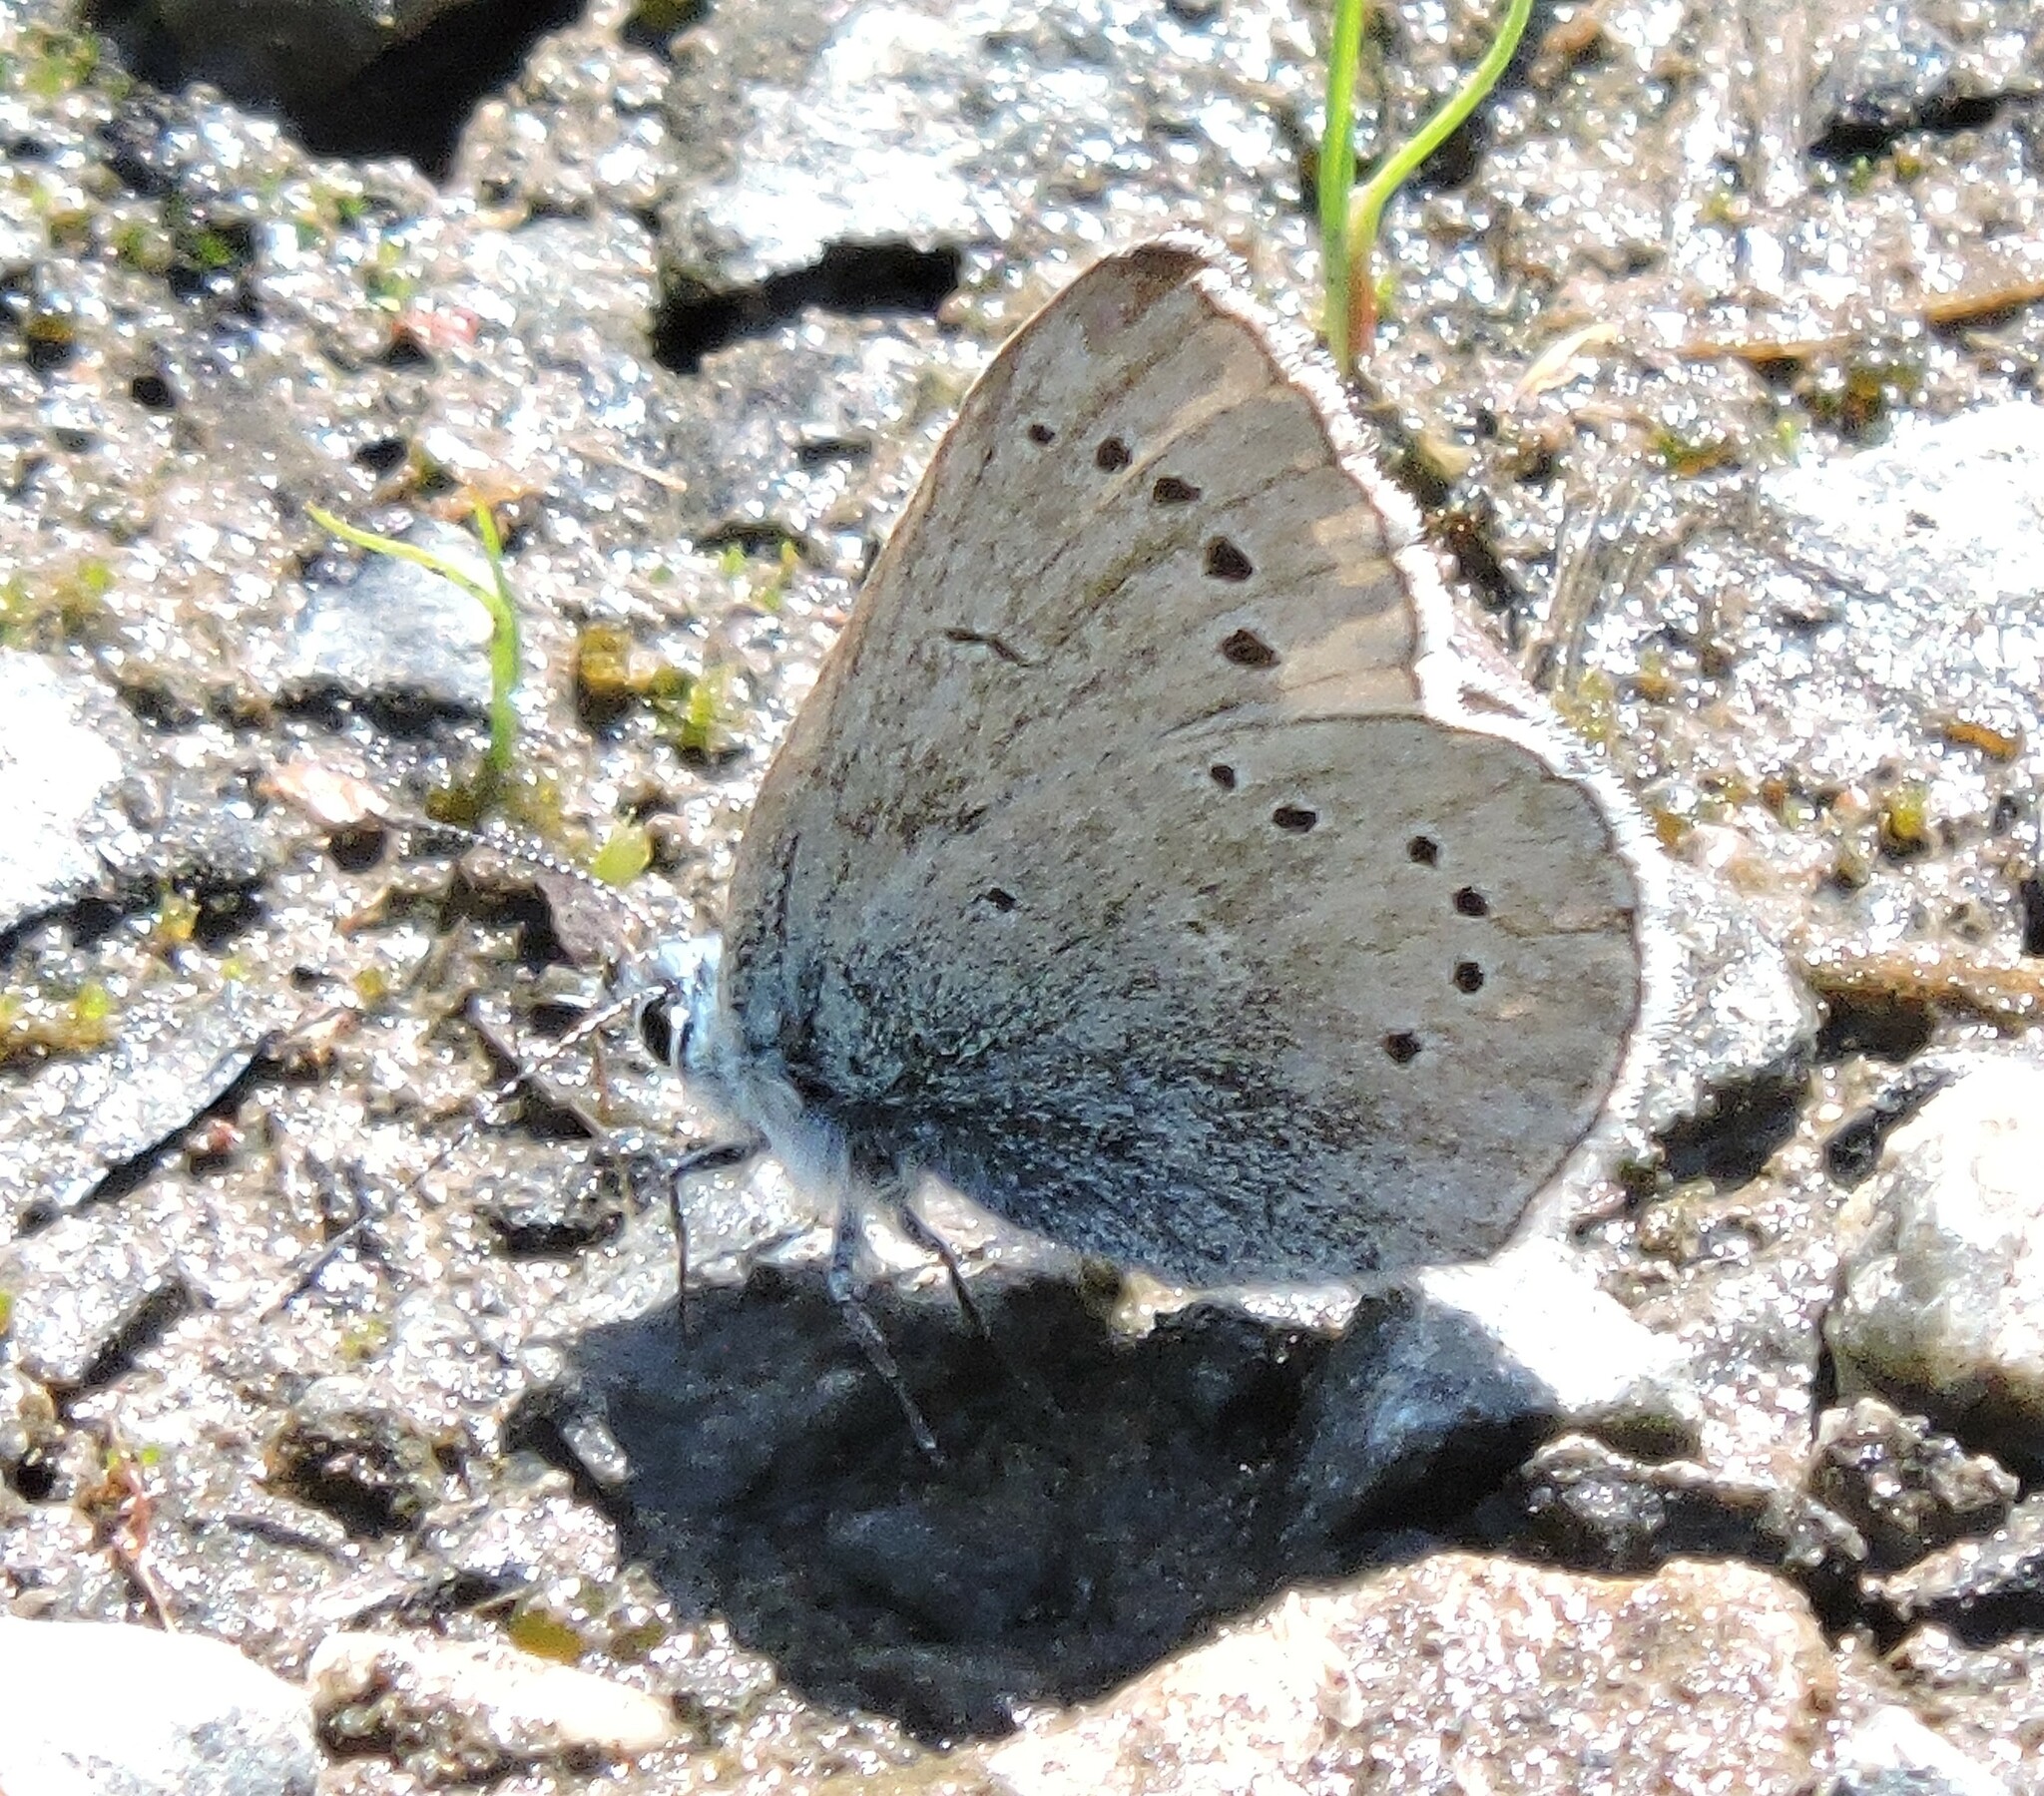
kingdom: Animalia
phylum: Arthropoda
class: Insecta
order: Lepidoptera
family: Lycaenidae
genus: Glaucopsyche
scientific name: Glaucopsyche lygdamus
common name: Silvery blue
